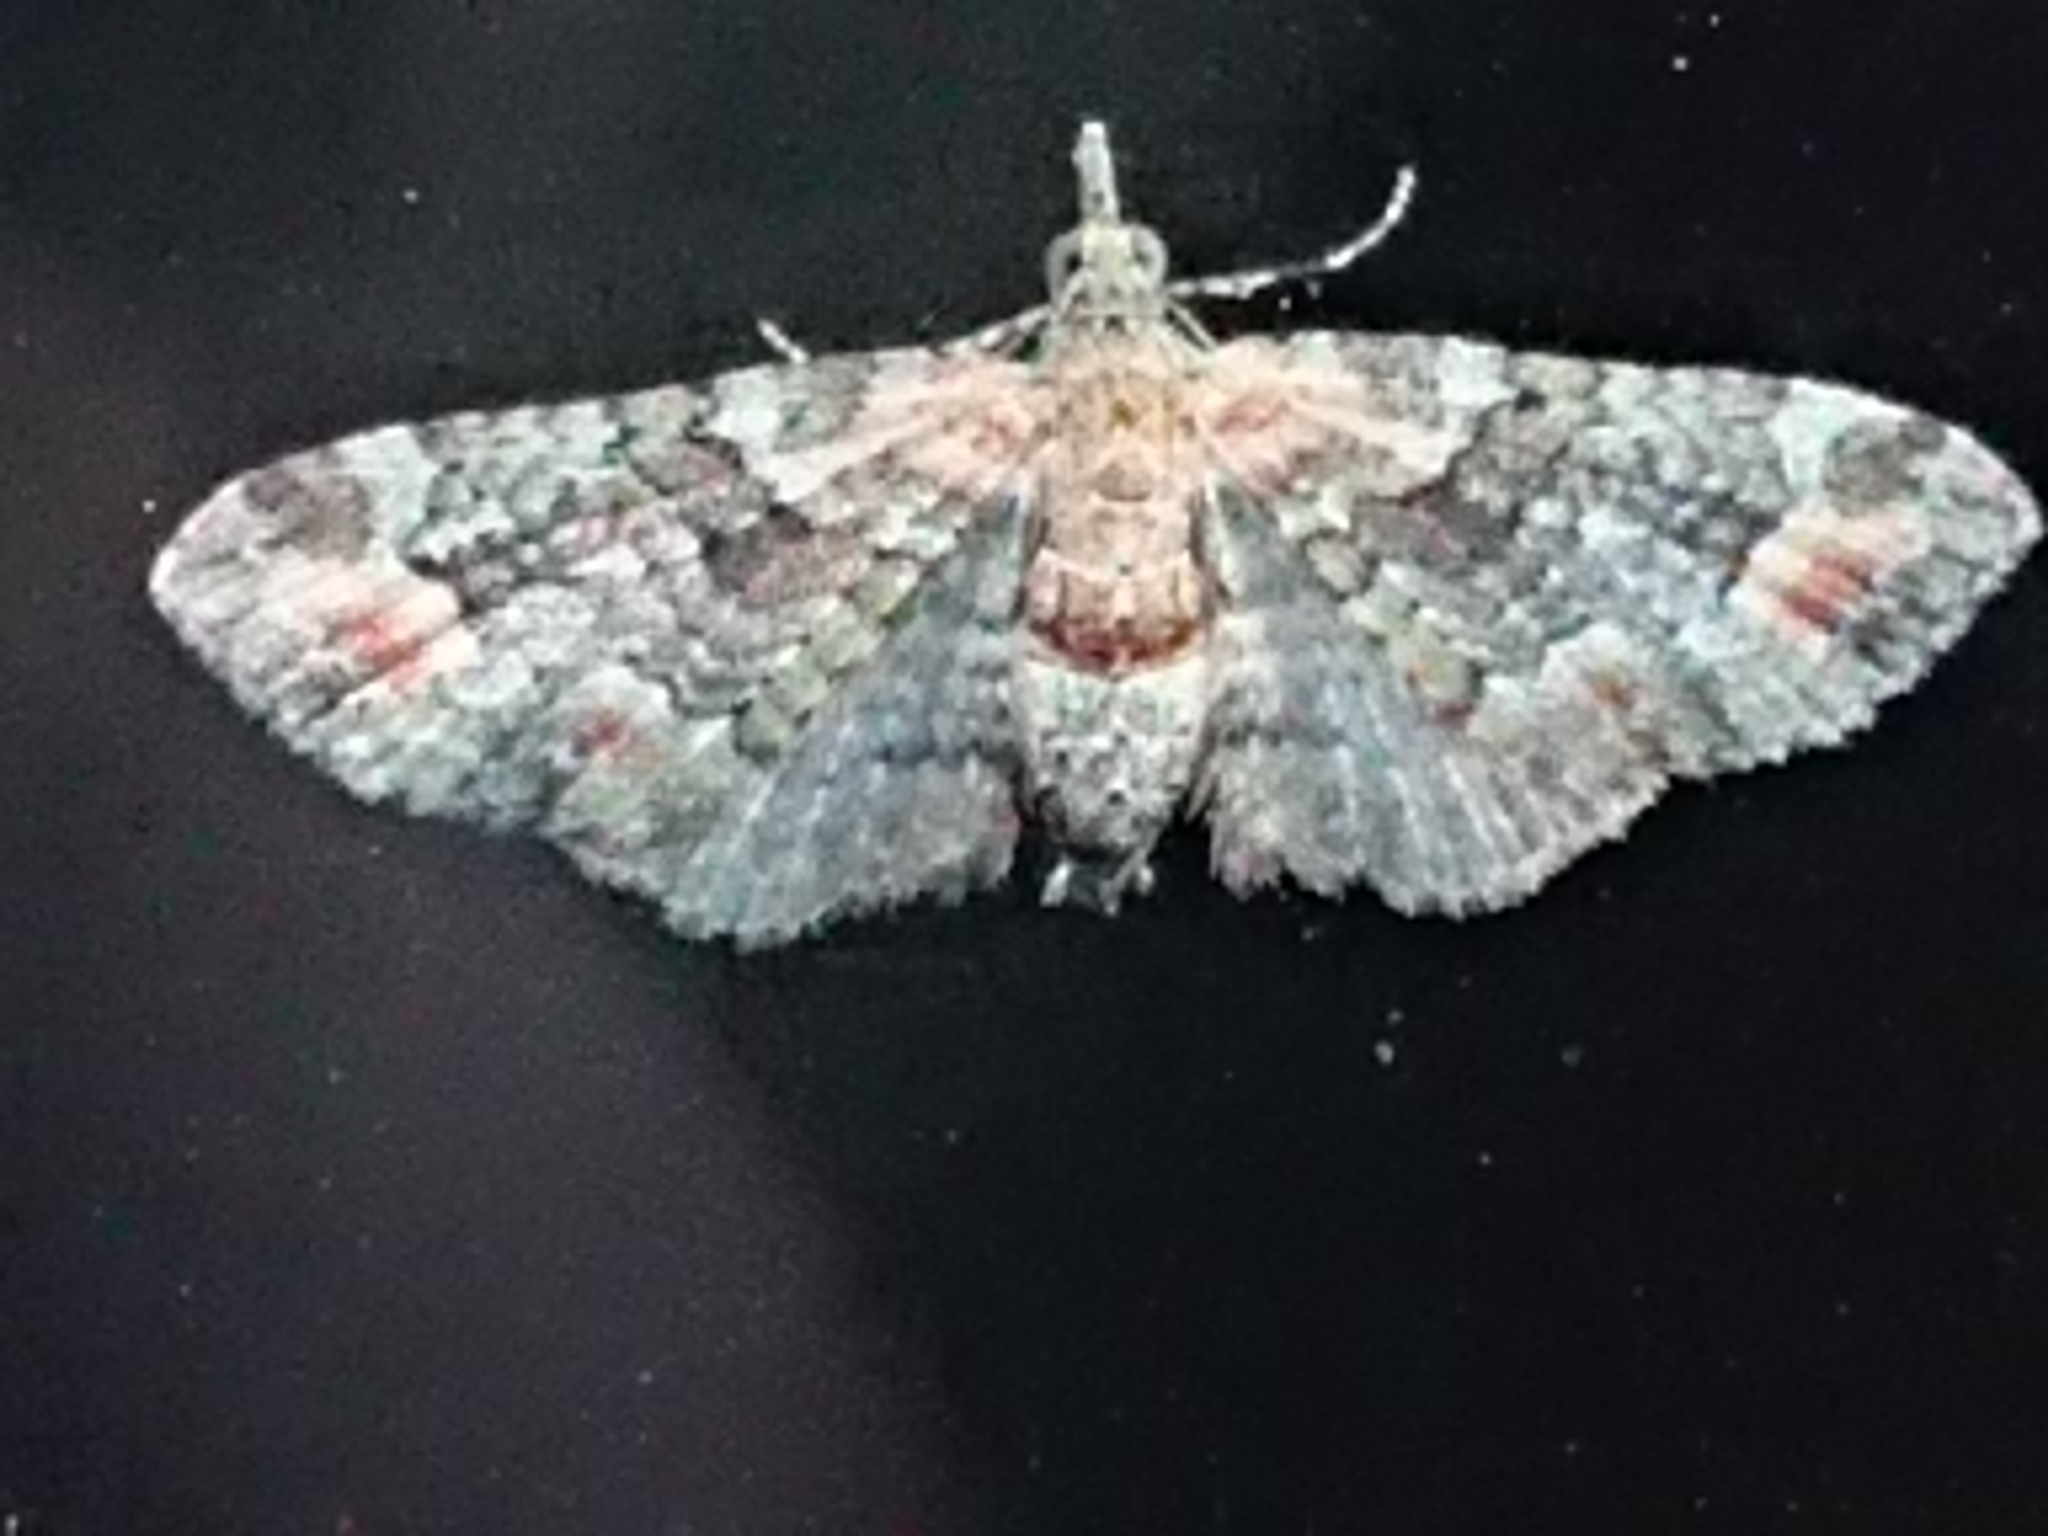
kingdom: Animalia
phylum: Arthropoda
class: Insecta
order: Lepidoptera
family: Geometridae
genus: Idaea
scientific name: Idaea mutanda
